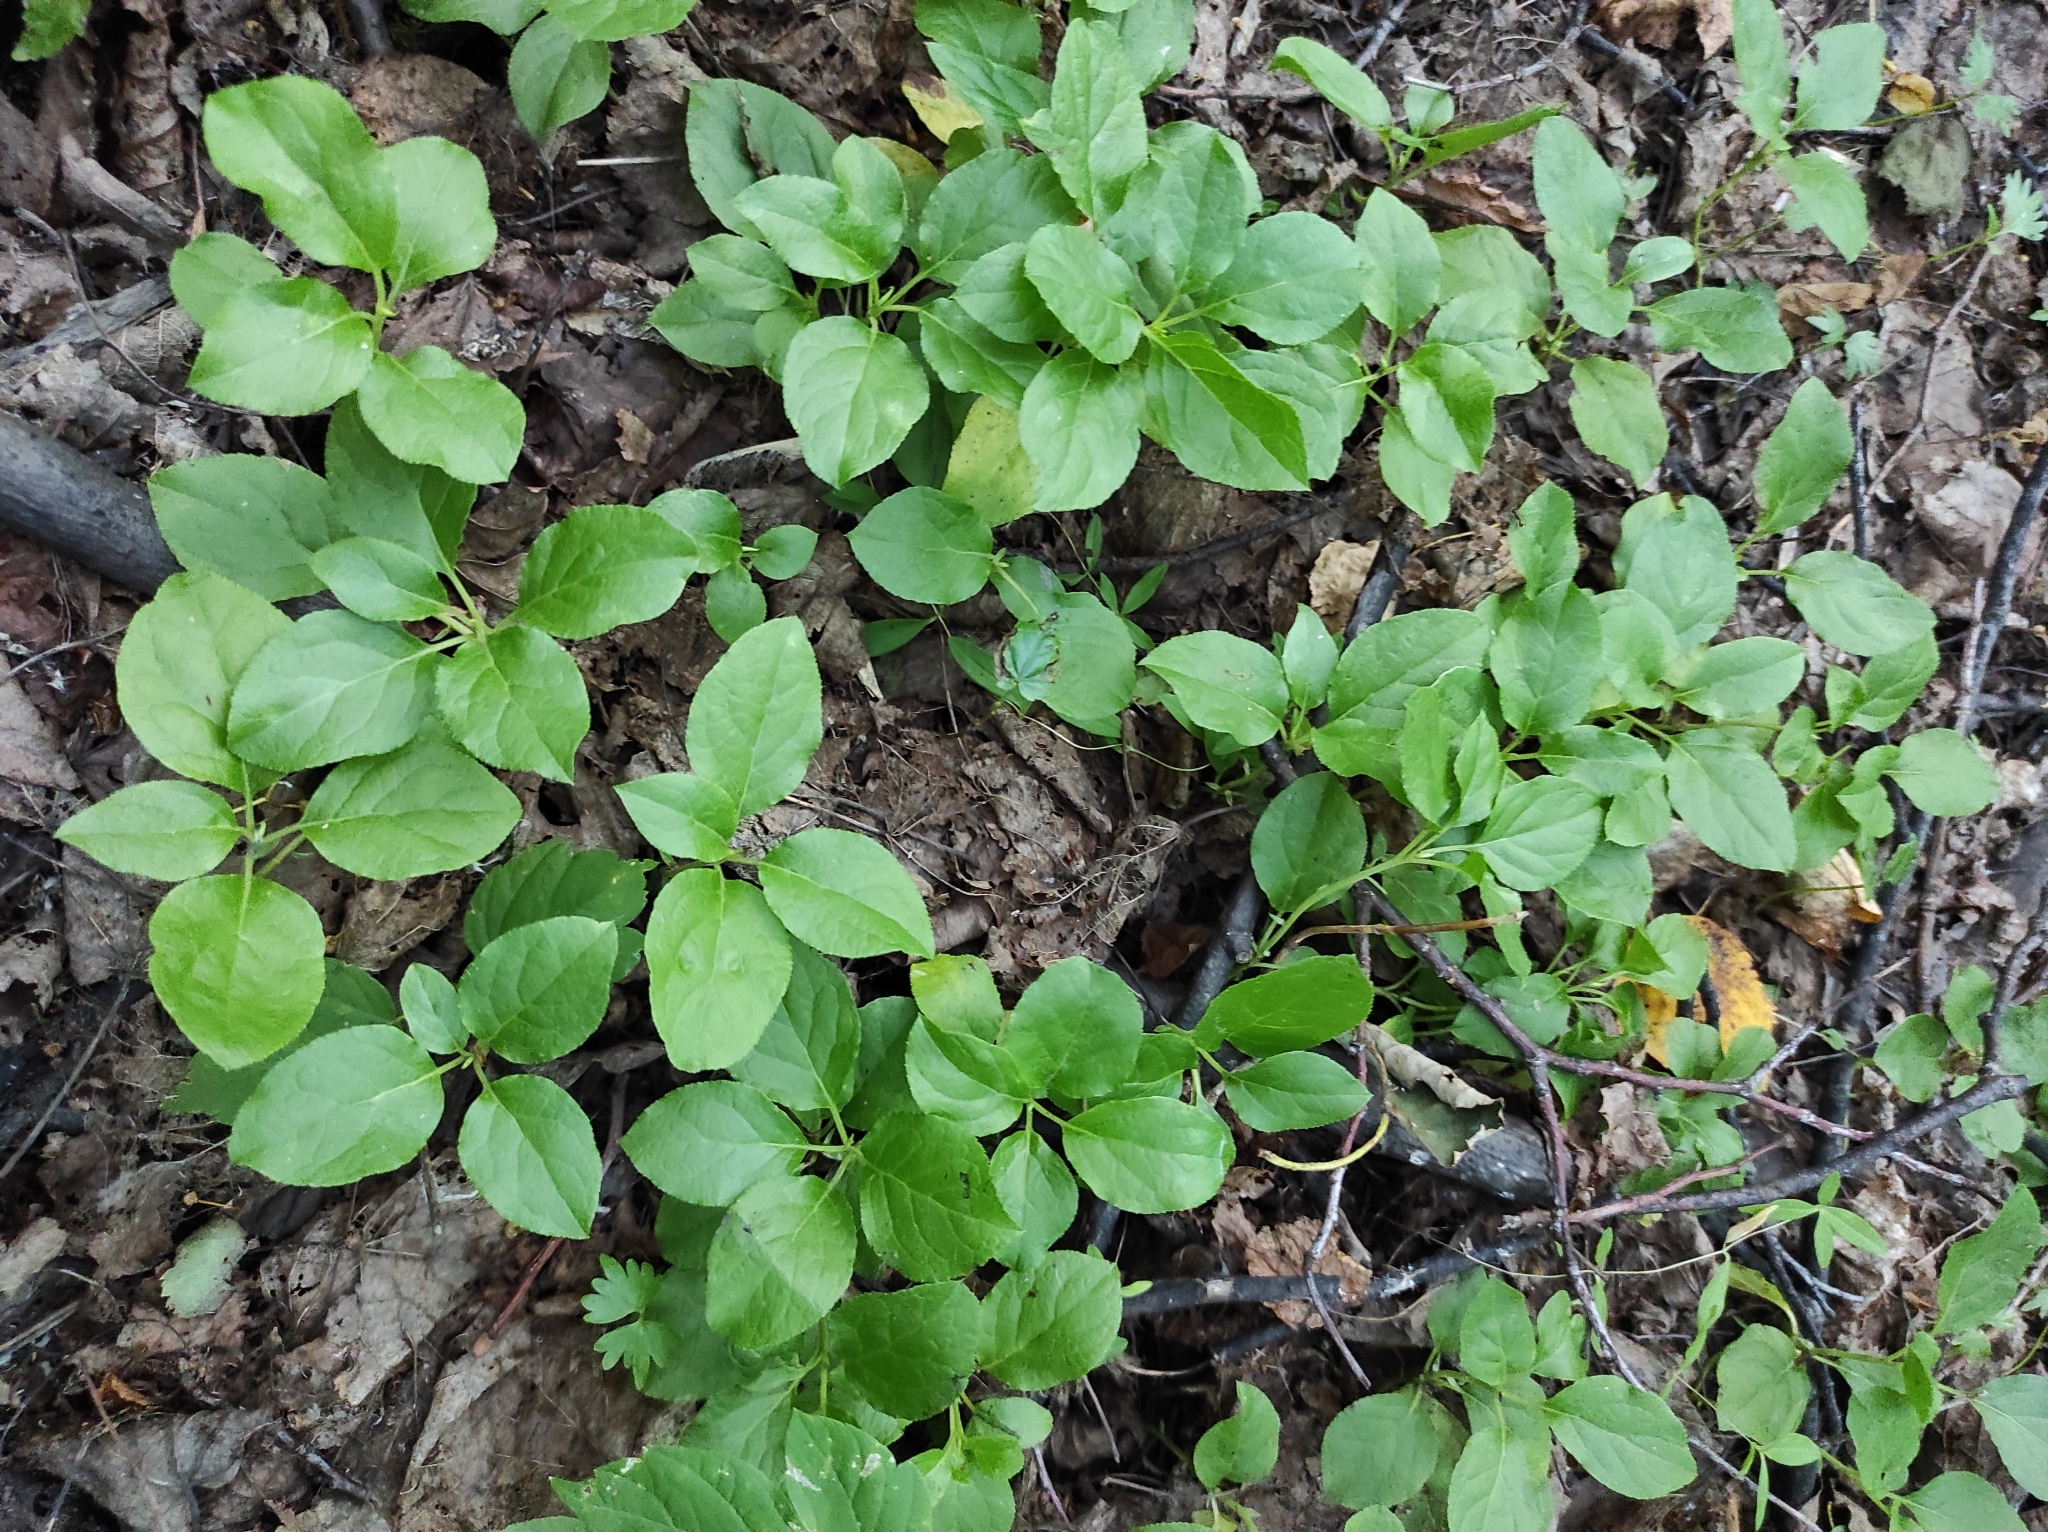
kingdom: Plantae
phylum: Tracheophyta
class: Magnoliopsida
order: Ericales
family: Ericaceae
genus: Orthilia
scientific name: Orthilia secunda
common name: One-sided orthilia
